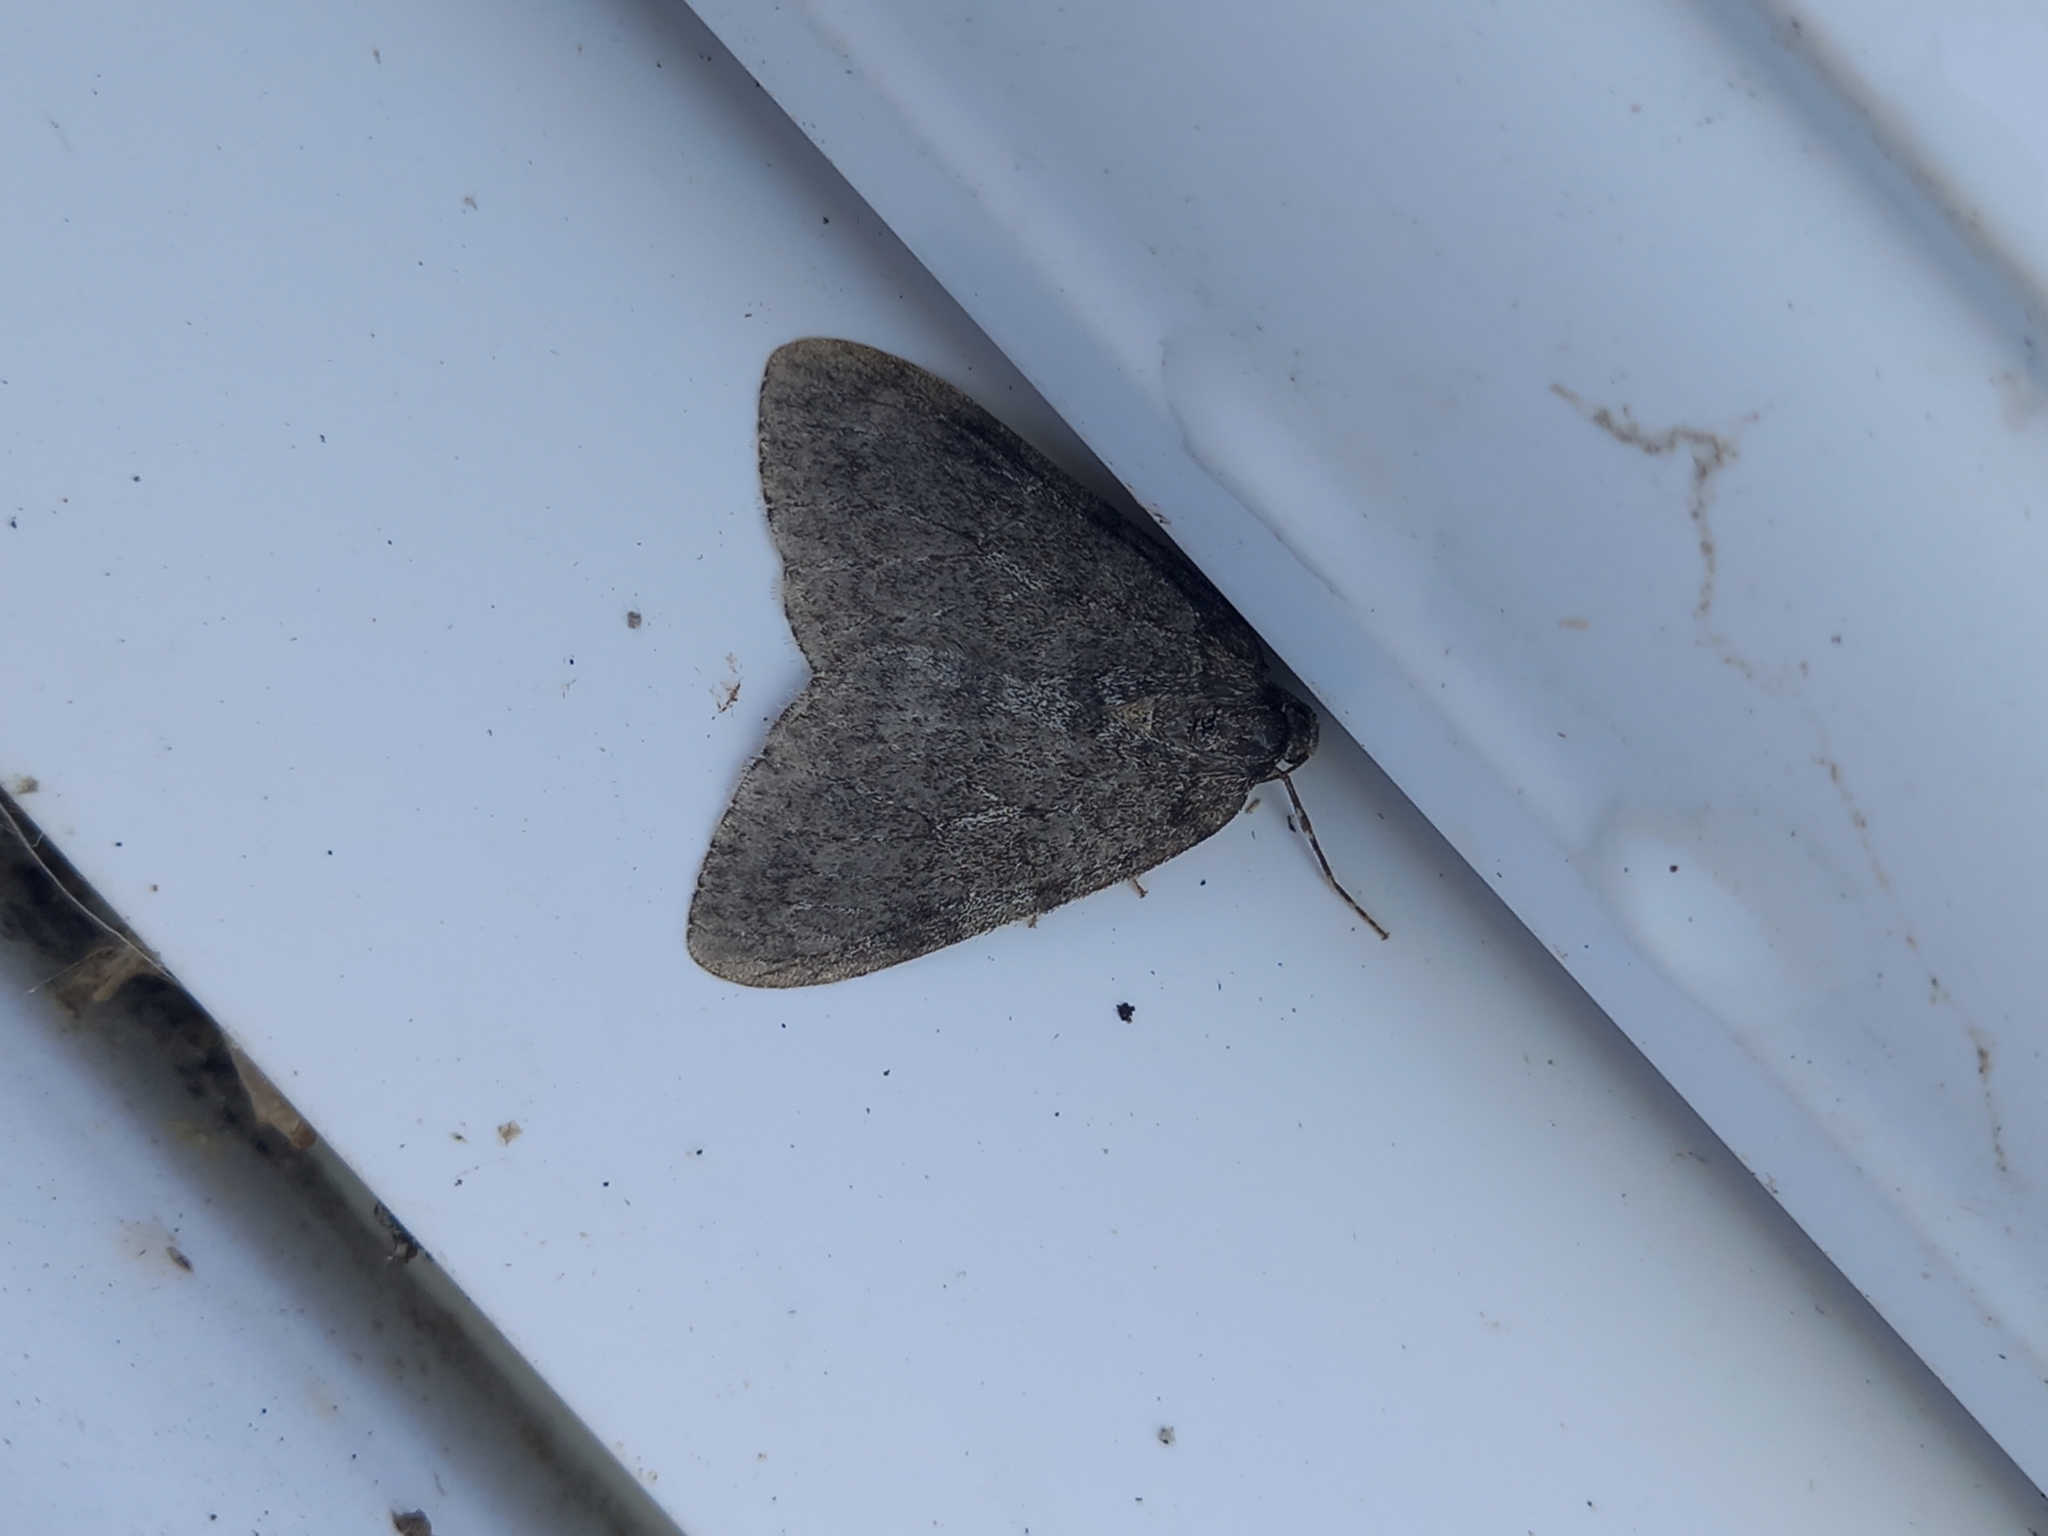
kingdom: Animalia
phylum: Arthropoda
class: Insecta
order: Lepidoptera
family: Geometridae
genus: Epirrita
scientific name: Epirrita
